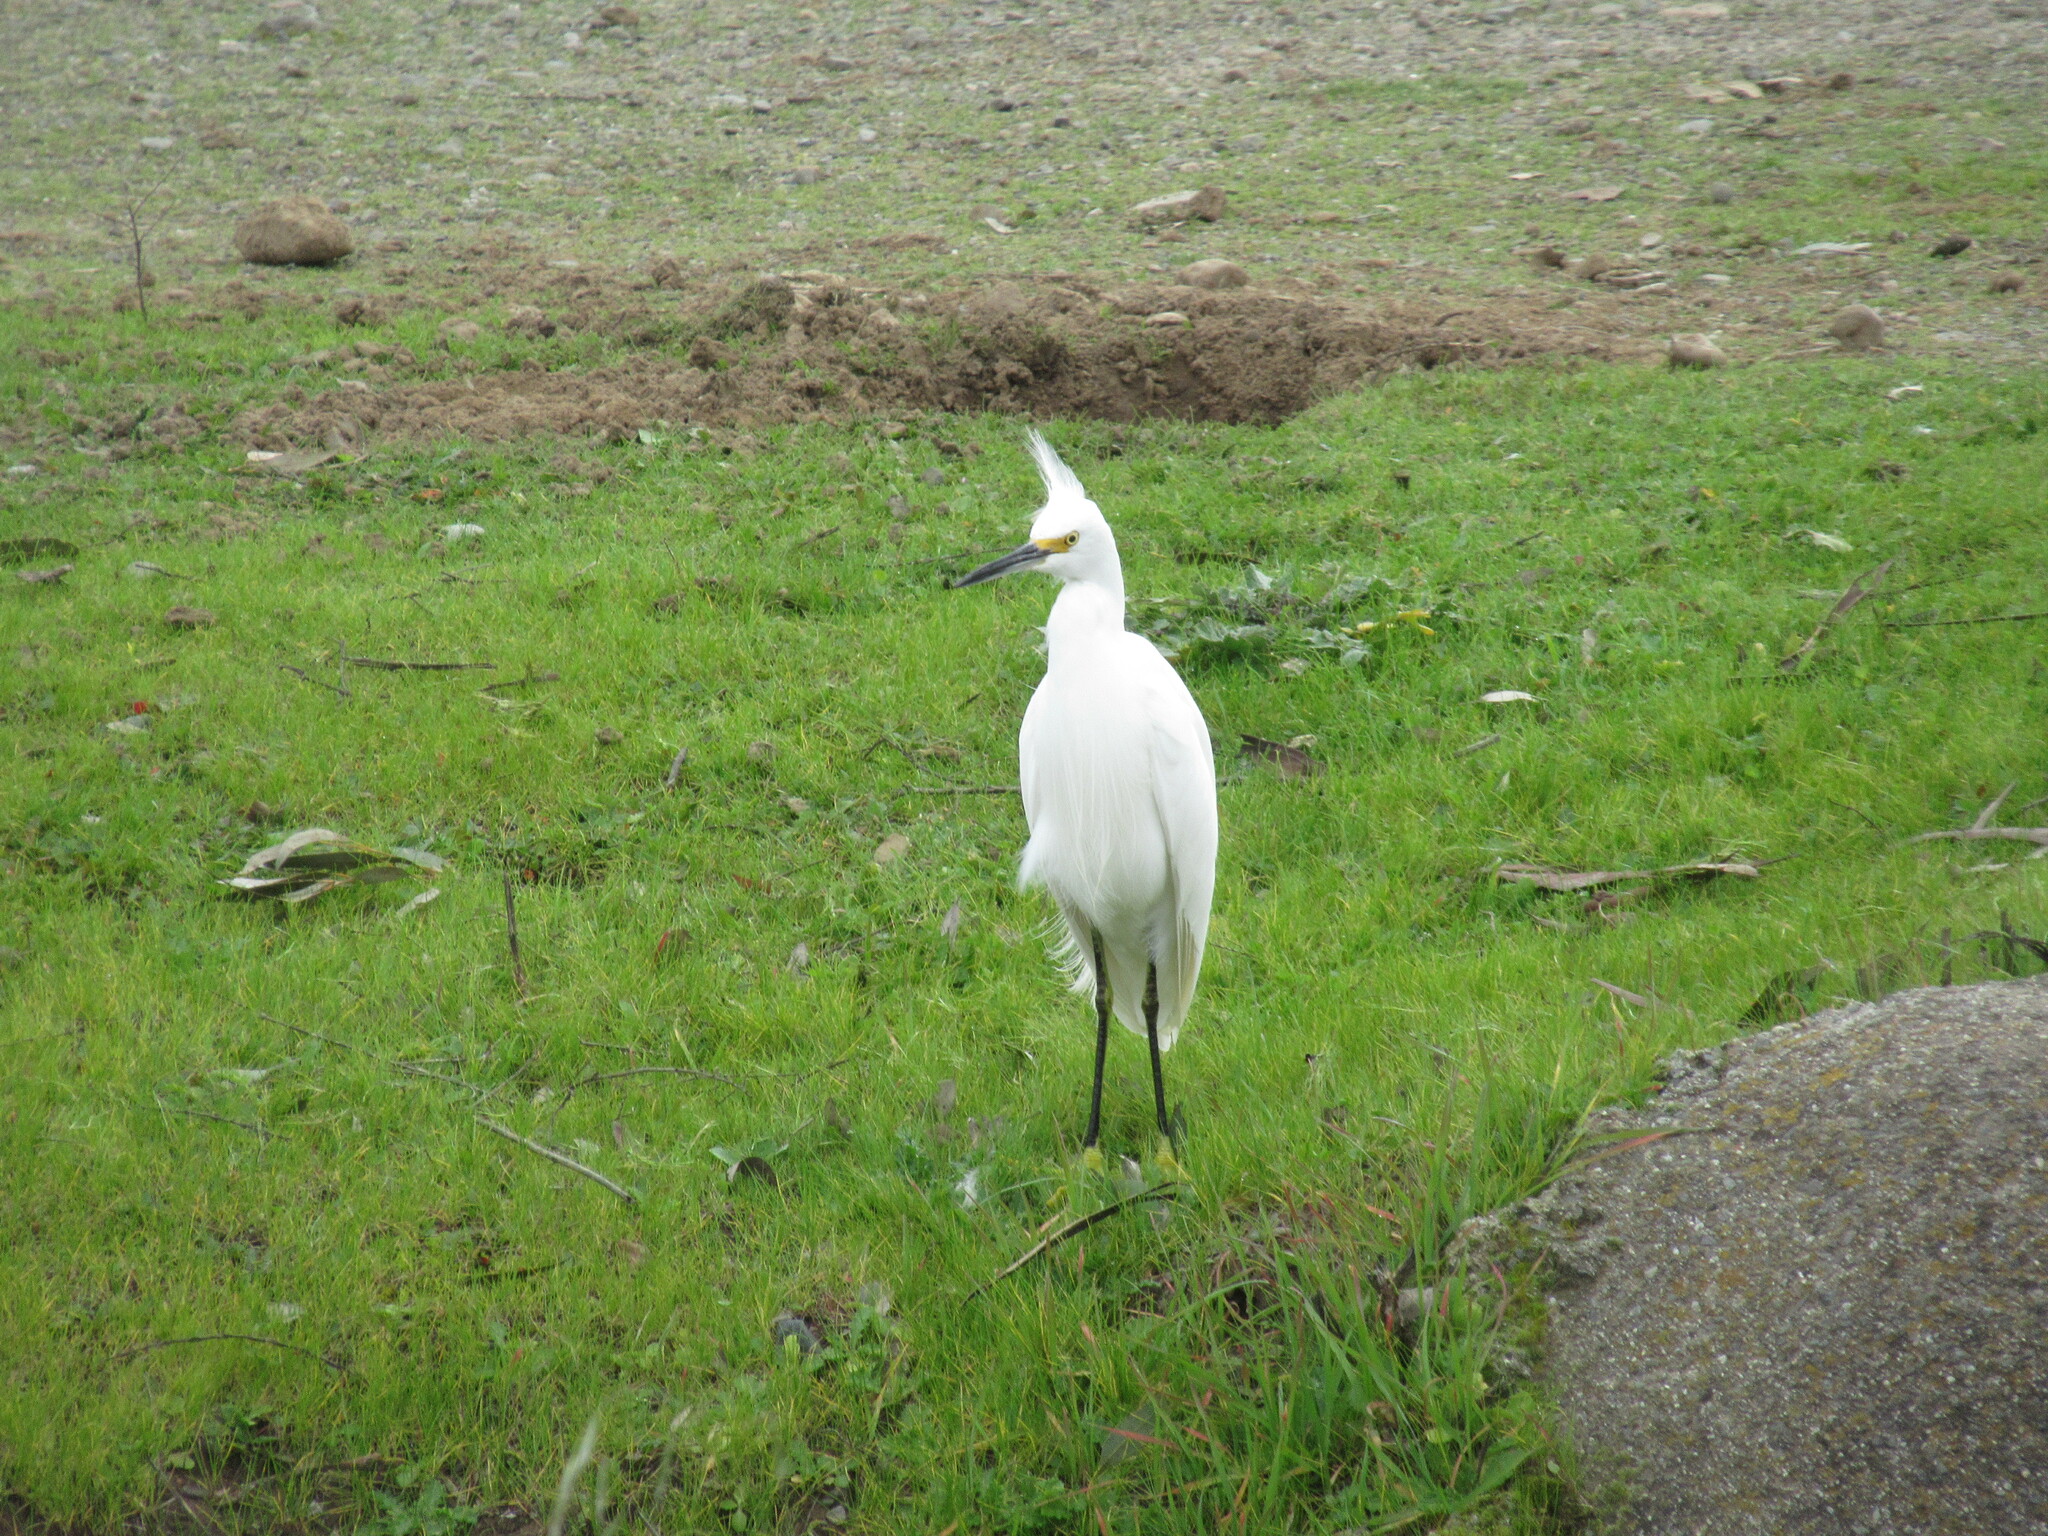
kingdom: Animalia
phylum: Chordata
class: Aves
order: Pelecaniformes
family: Ardeidae
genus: Egretta
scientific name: Egretta thula
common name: Snowy egret
